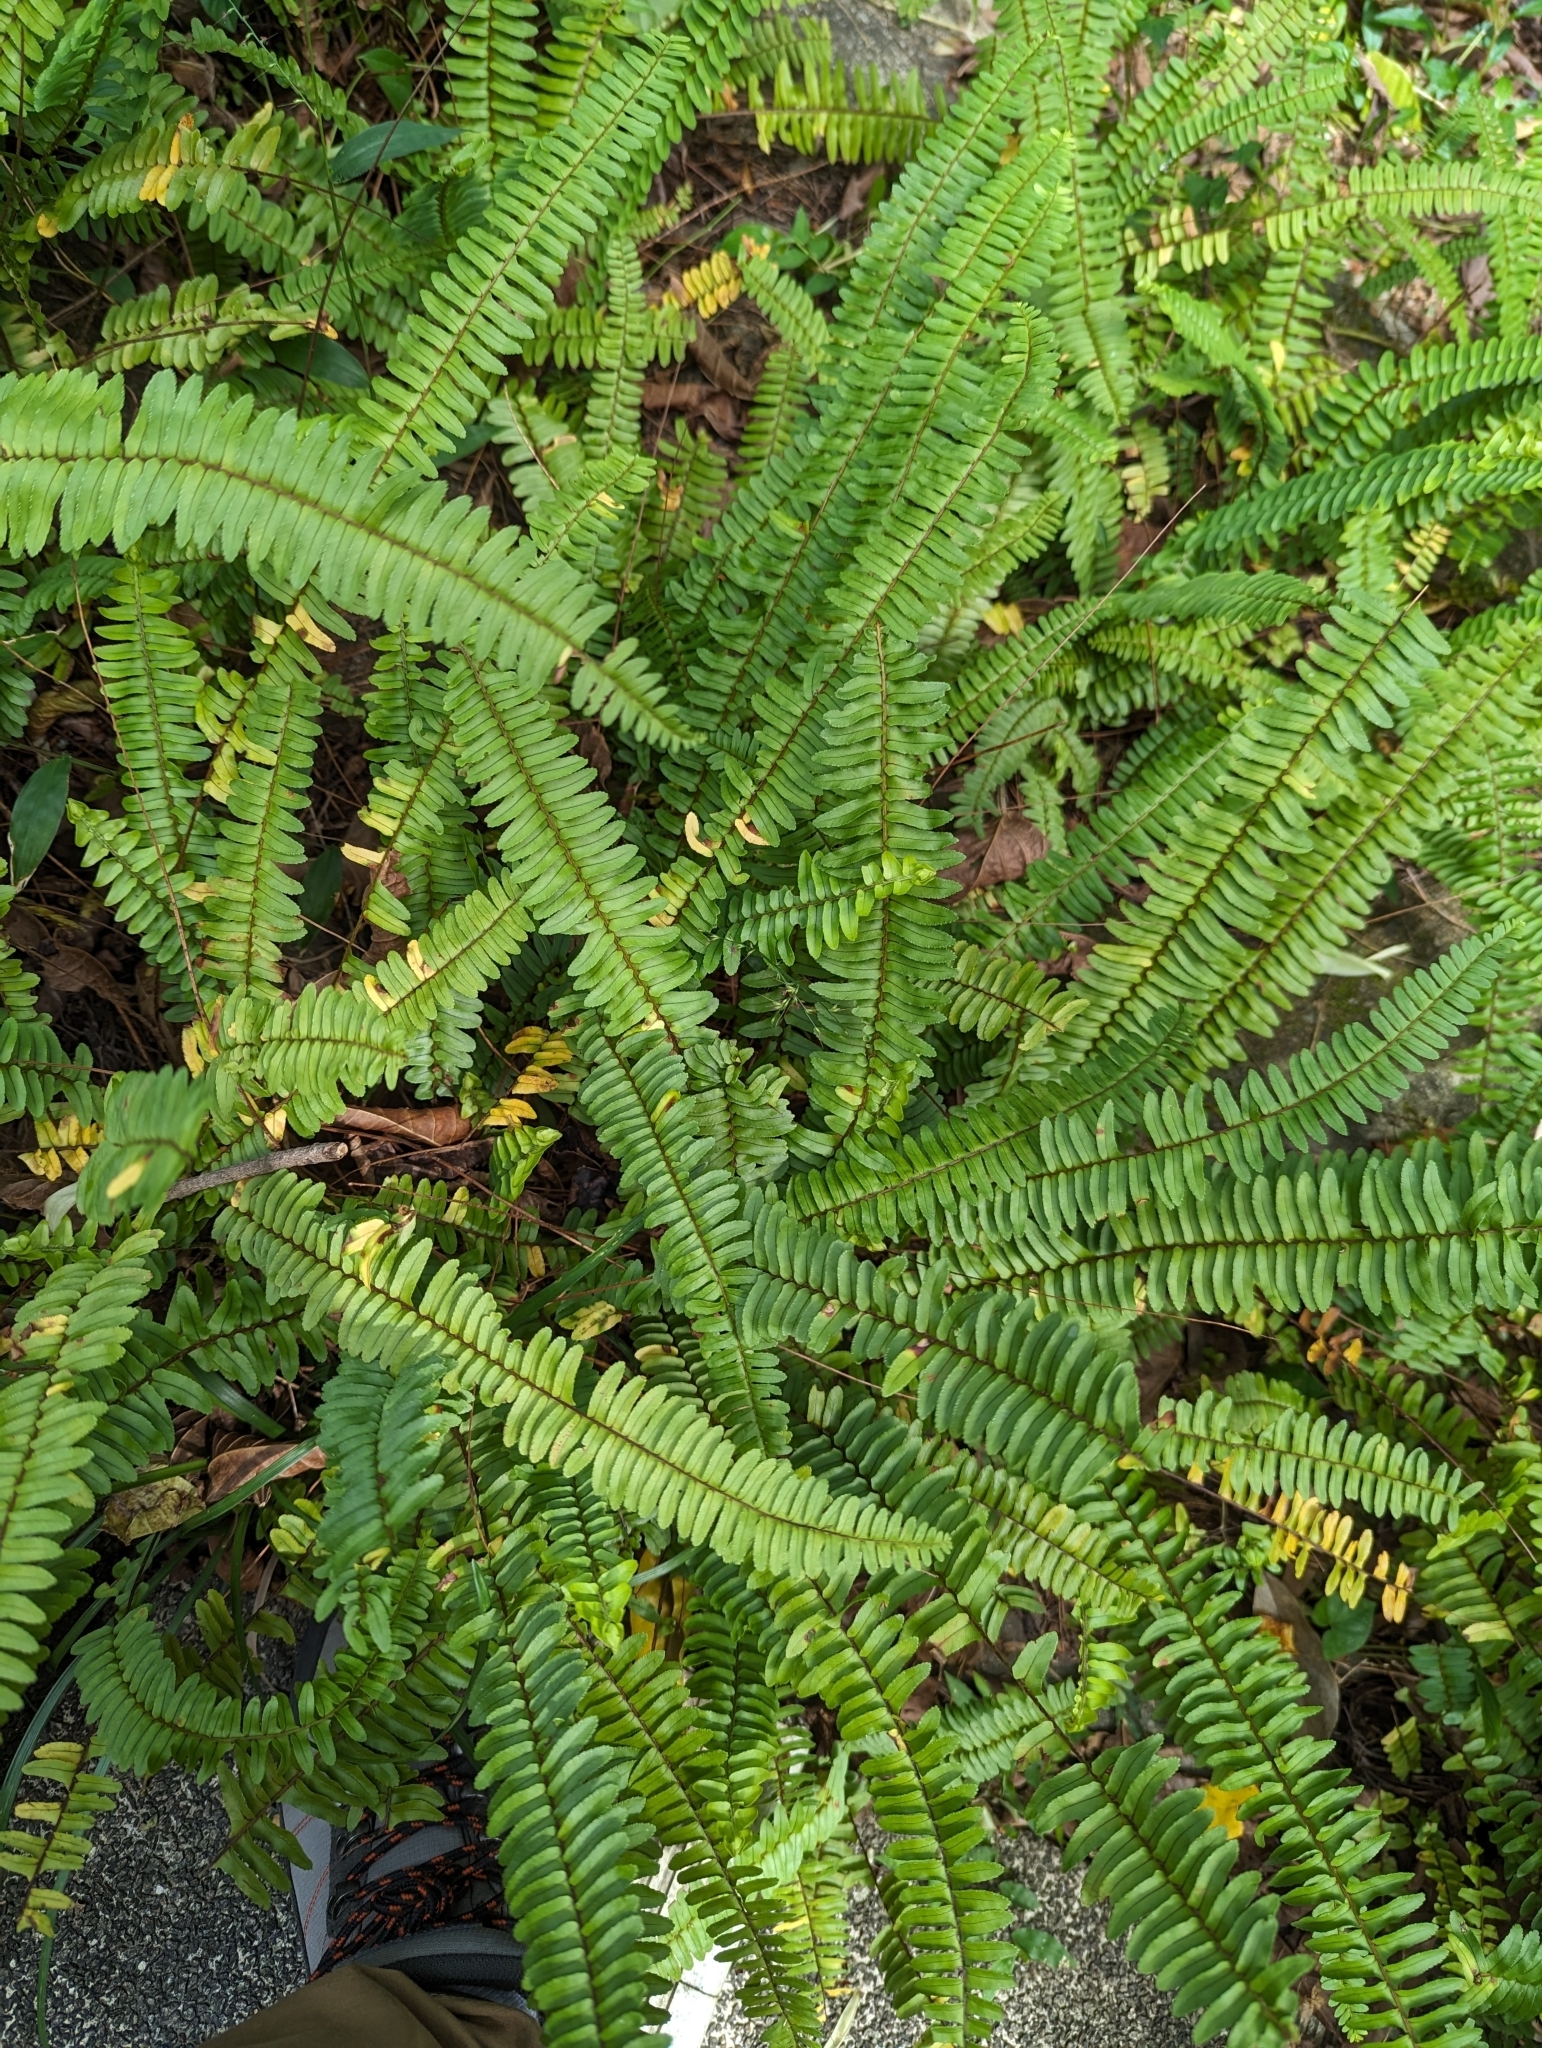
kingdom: Plantae
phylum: Tracheophyta
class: Polypodiopsida
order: Polypodiales
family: Nephrolepidaceae
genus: Nephrolepis
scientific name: Nephrolepis cordifolia
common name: Narrow swordfern
